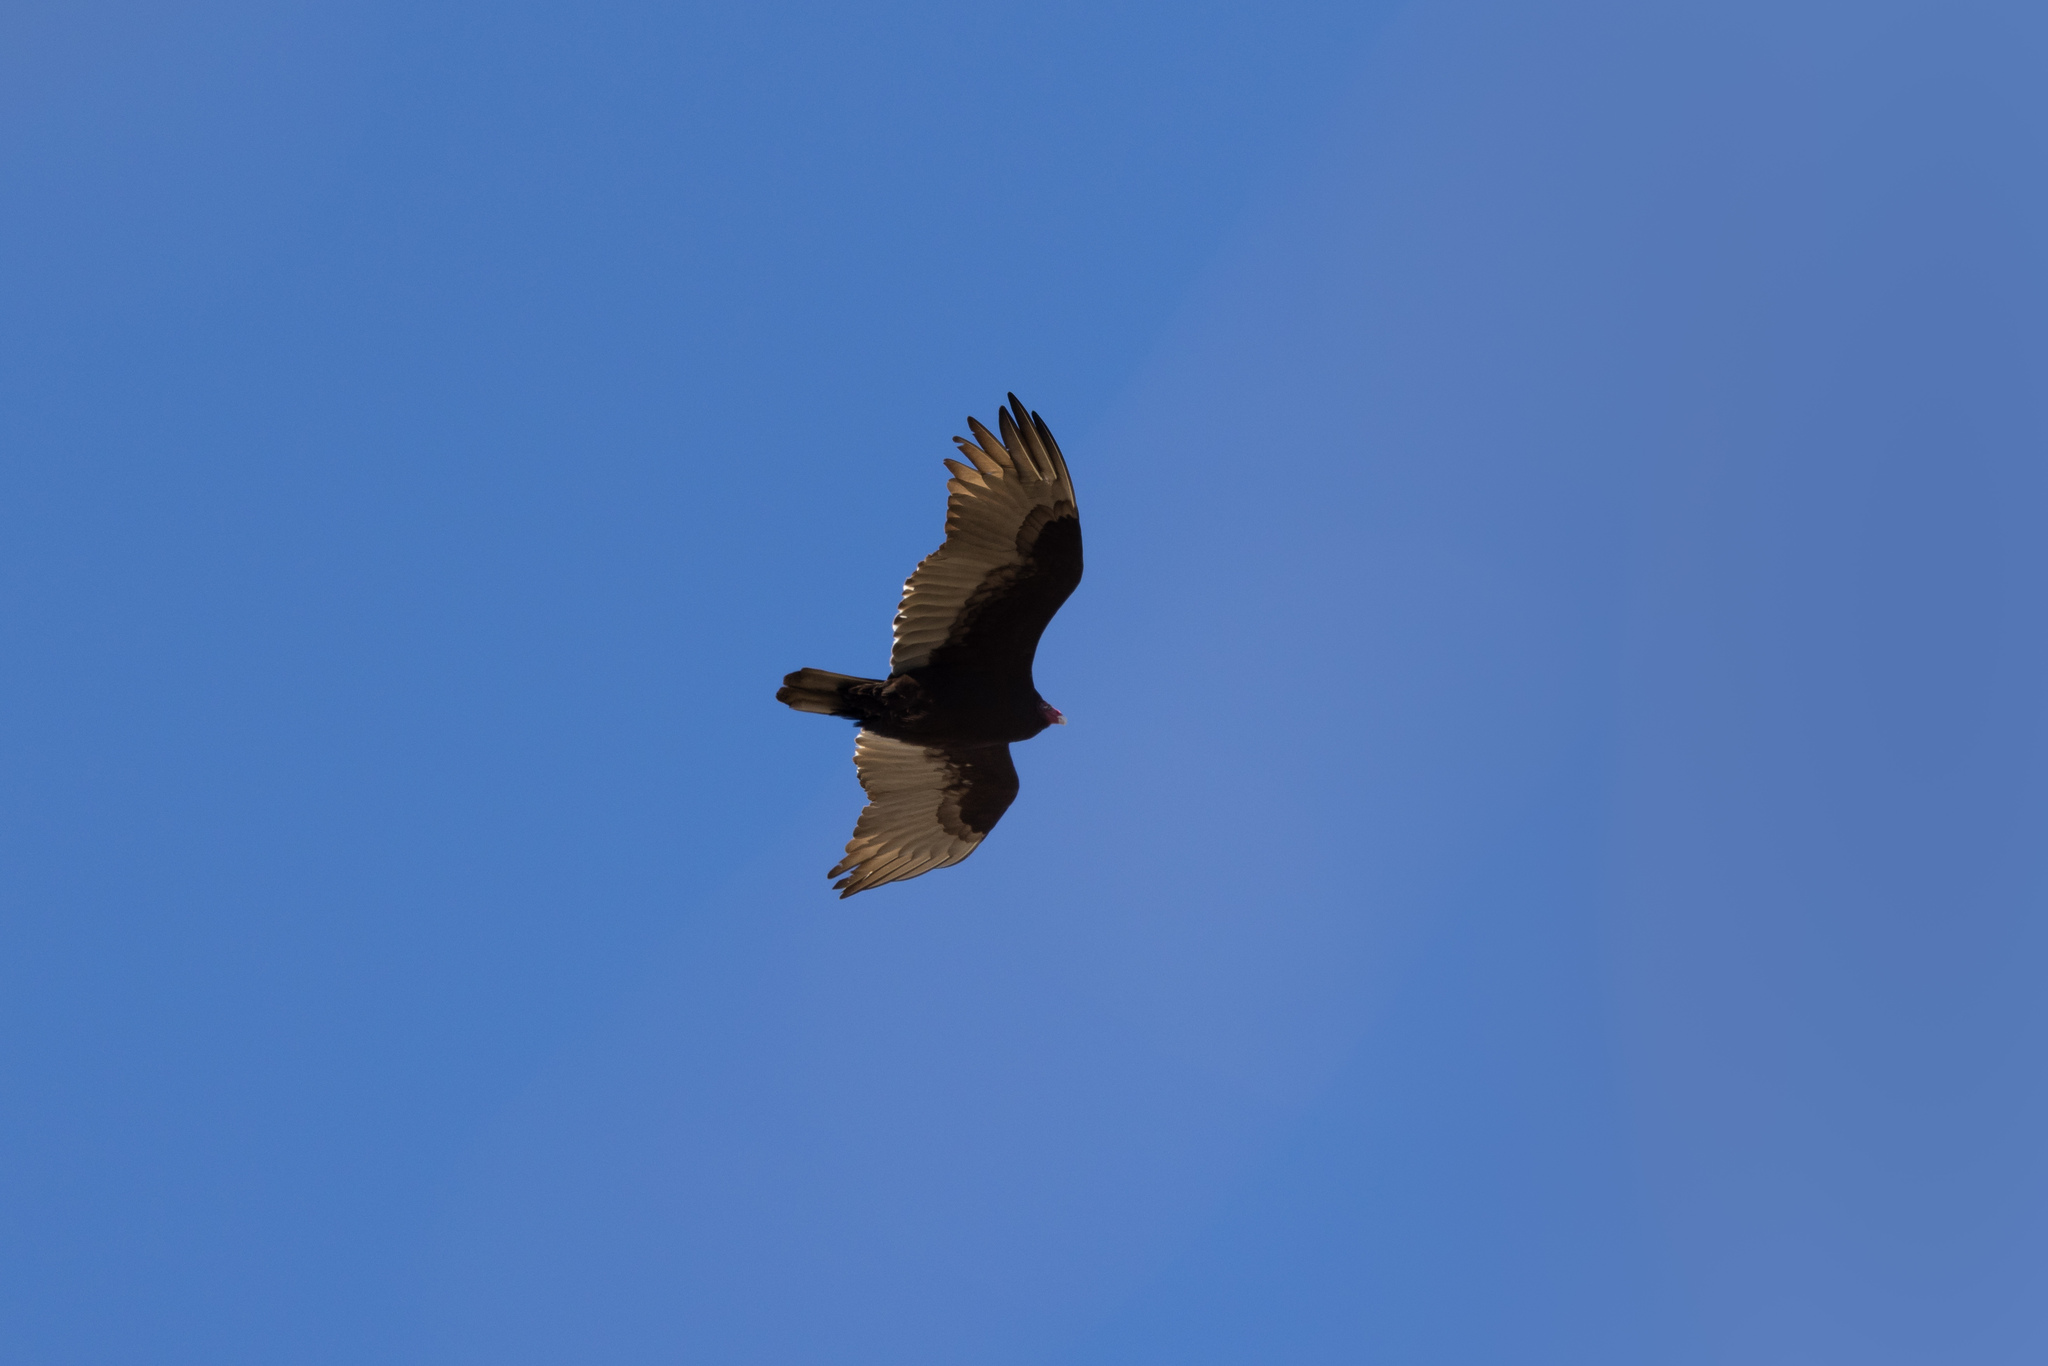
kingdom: Animalia
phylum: Chordata
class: Aves
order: Accipitriformes
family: Cathartidae
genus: Cathartes
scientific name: Cathartes aura
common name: Turkey vulture
